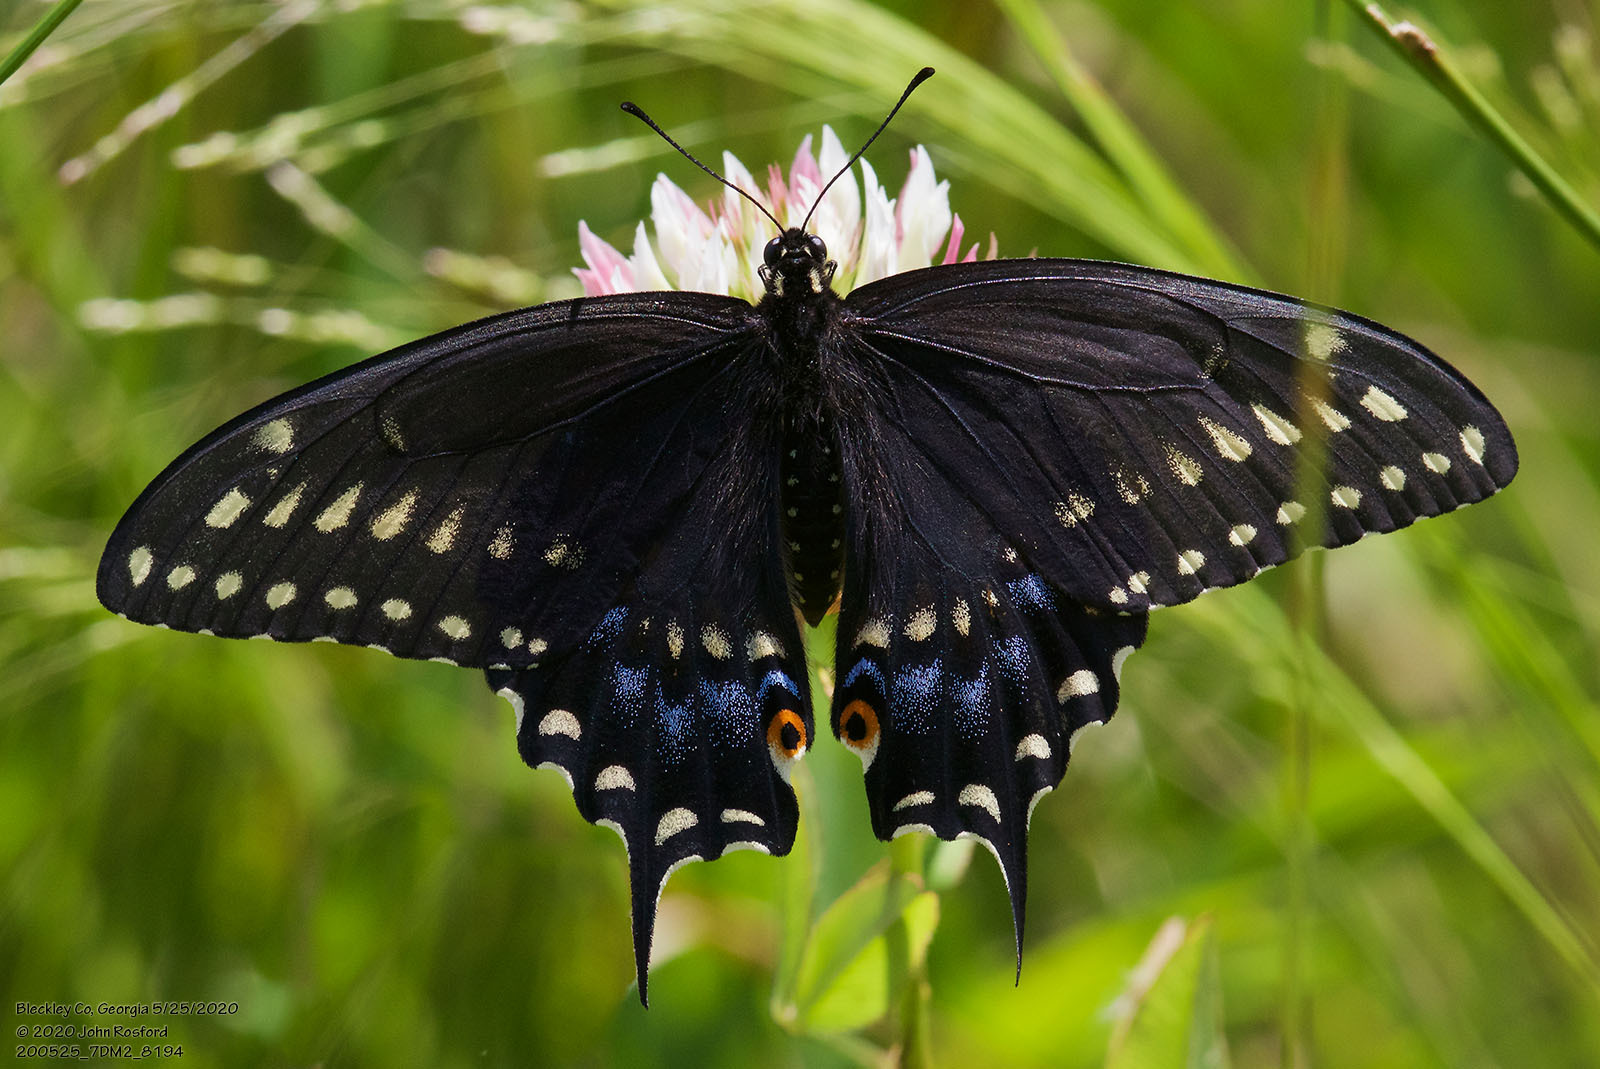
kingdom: Animalia
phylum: Arthropoda
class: Insecta
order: Lepidoptera
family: Papilionidae
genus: Papilio
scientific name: Papilio polyxenes
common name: Black swallowtail
